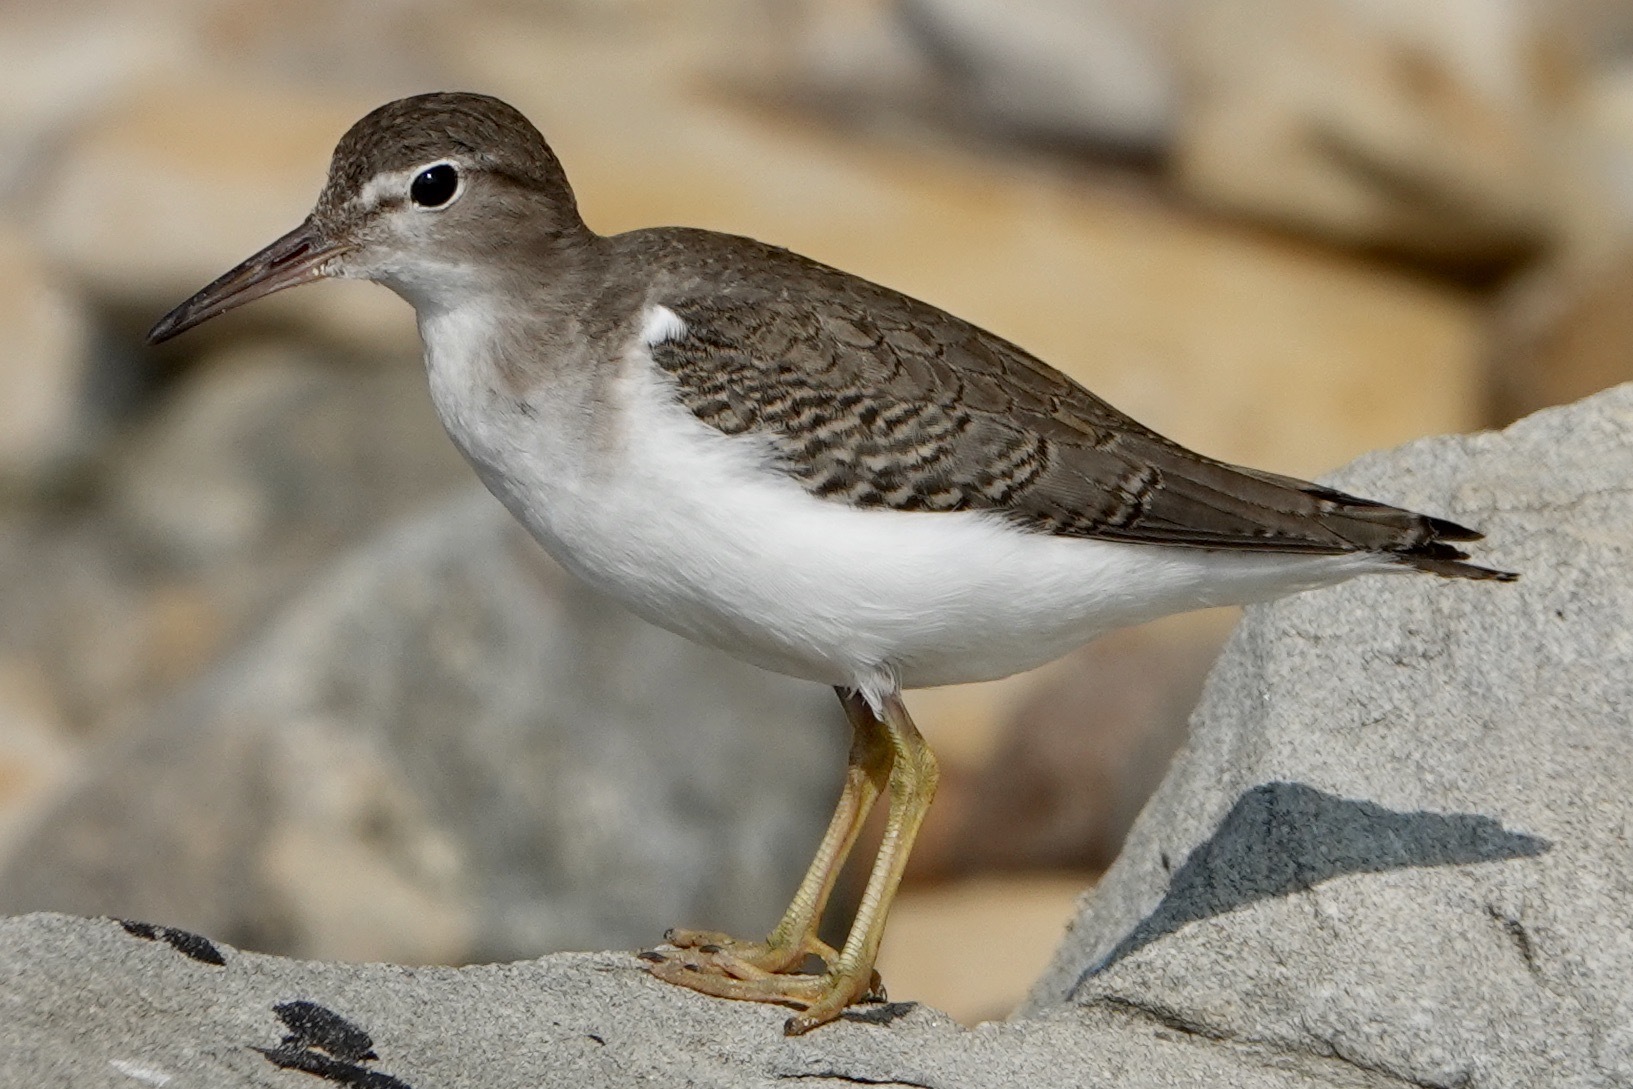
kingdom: Animalia
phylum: Chordata
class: Aves
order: Charadriiformes
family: Scolopacidae
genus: Actitis
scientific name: Actitis macularius
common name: Spotted sandpiper
